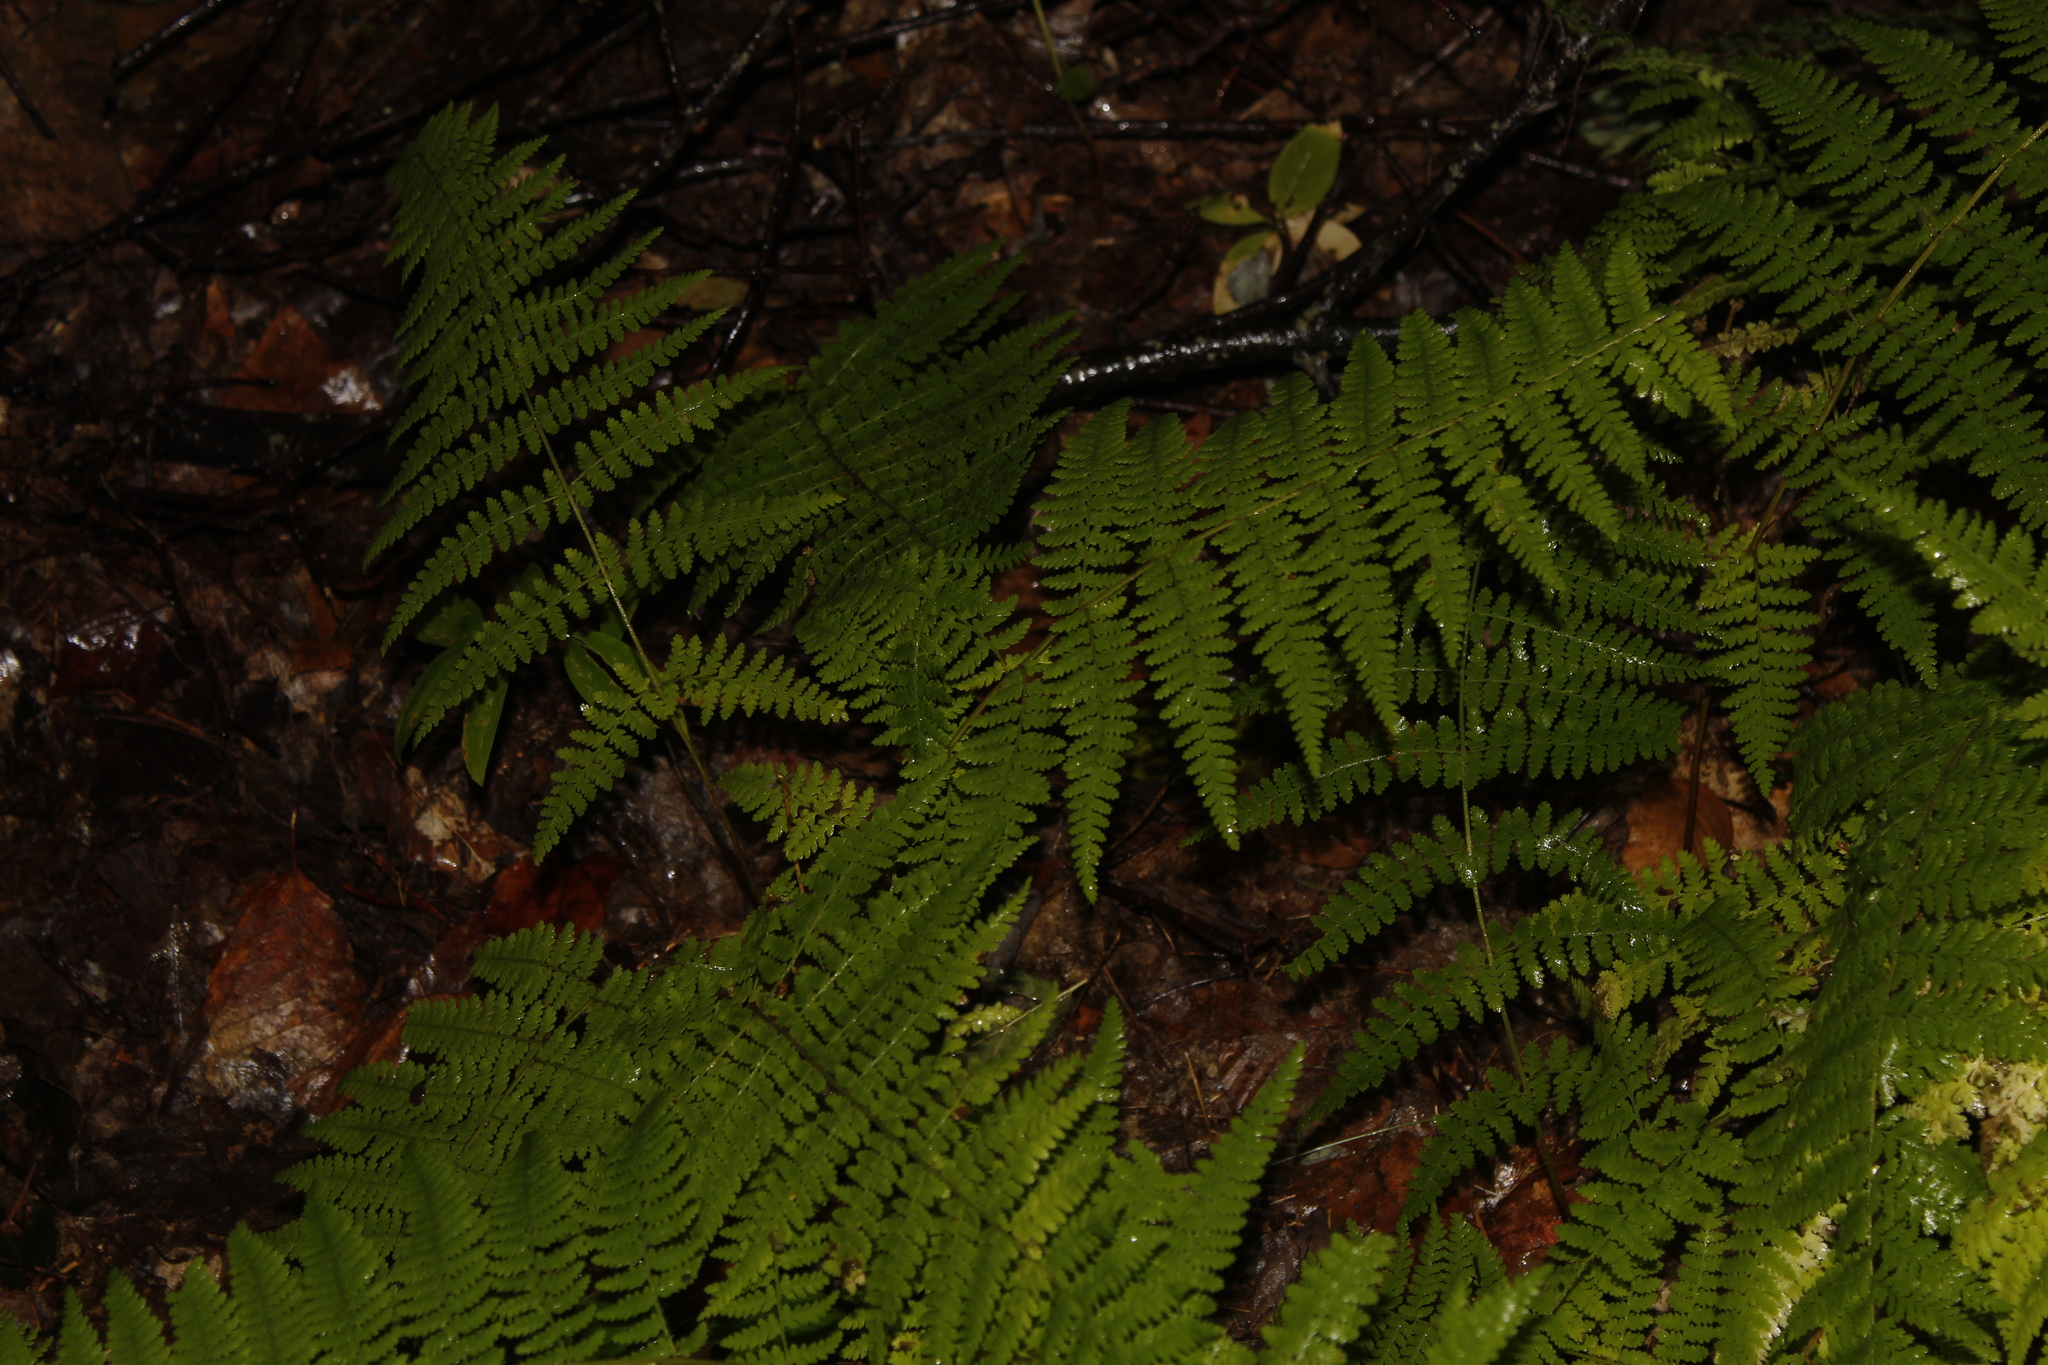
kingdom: Plantae
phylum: Tracheophyta
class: Polypodiopsida
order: Polypodiales
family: Dennstaedtiaceae
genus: Sitobolium
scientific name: Sitobolium punctilobum
